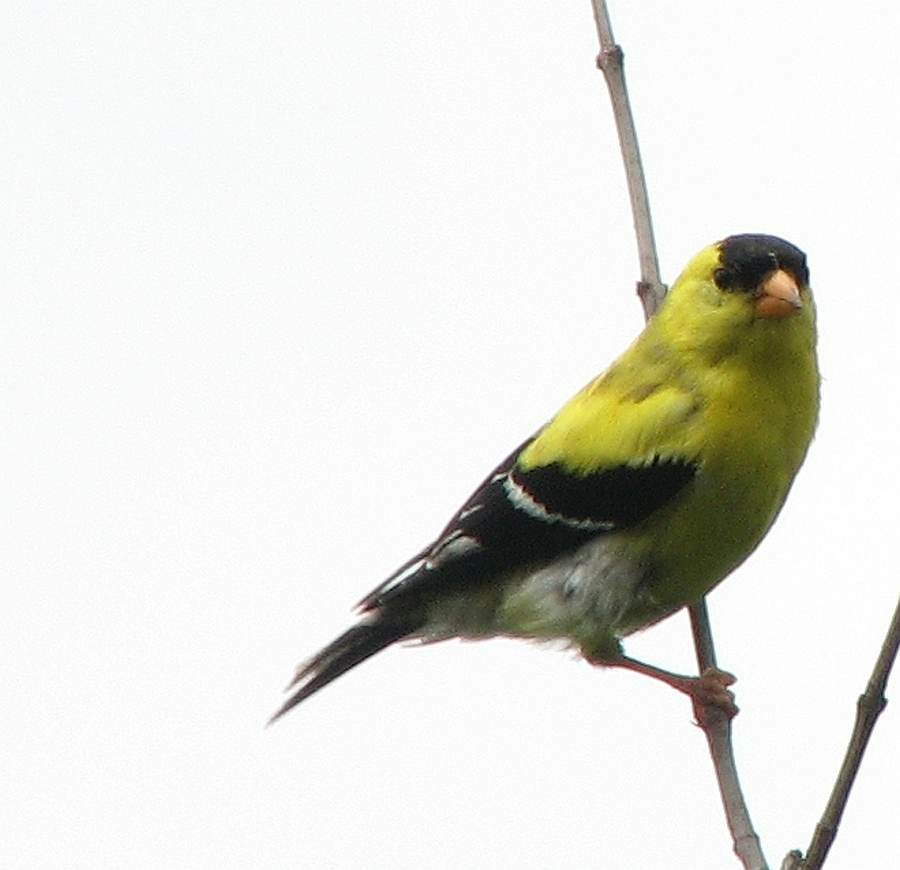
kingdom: Animalia
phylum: Chordata
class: Aves
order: Passeriformes
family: Fringillidae
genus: Spinus
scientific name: Spinus tristis
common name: American goldfinch
